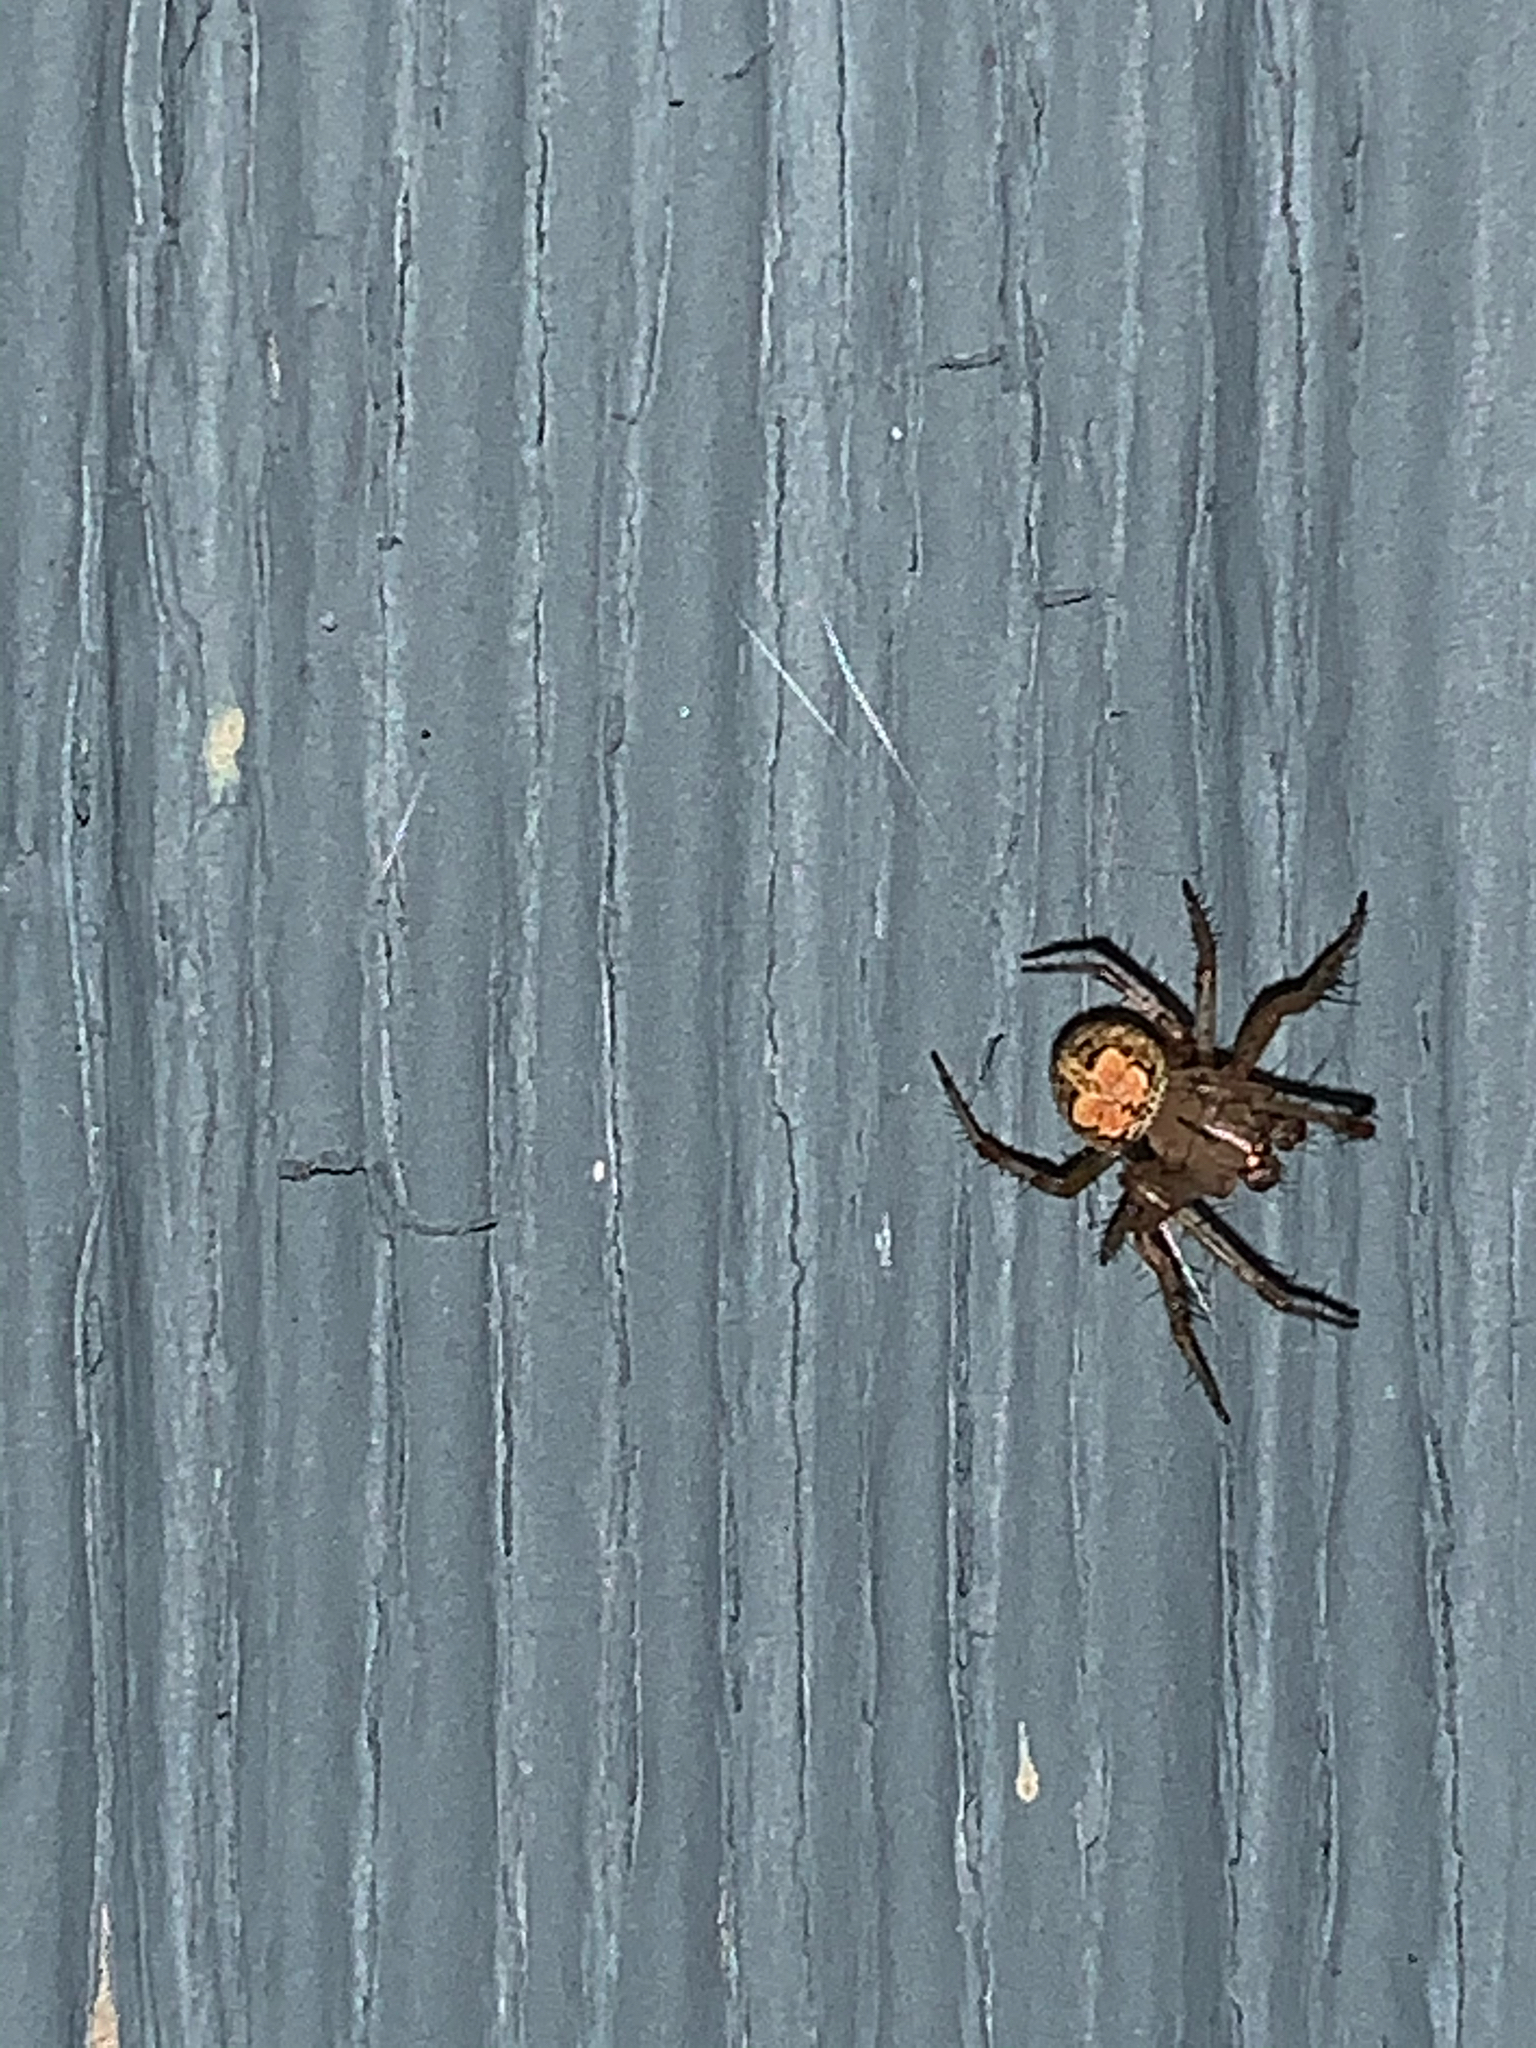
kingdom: Animalia
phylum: Arthropoda
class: Arachnida
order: Araneae
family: Araneidae
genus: Araneus
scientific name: Araneus pegnia
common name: Orb weavers
